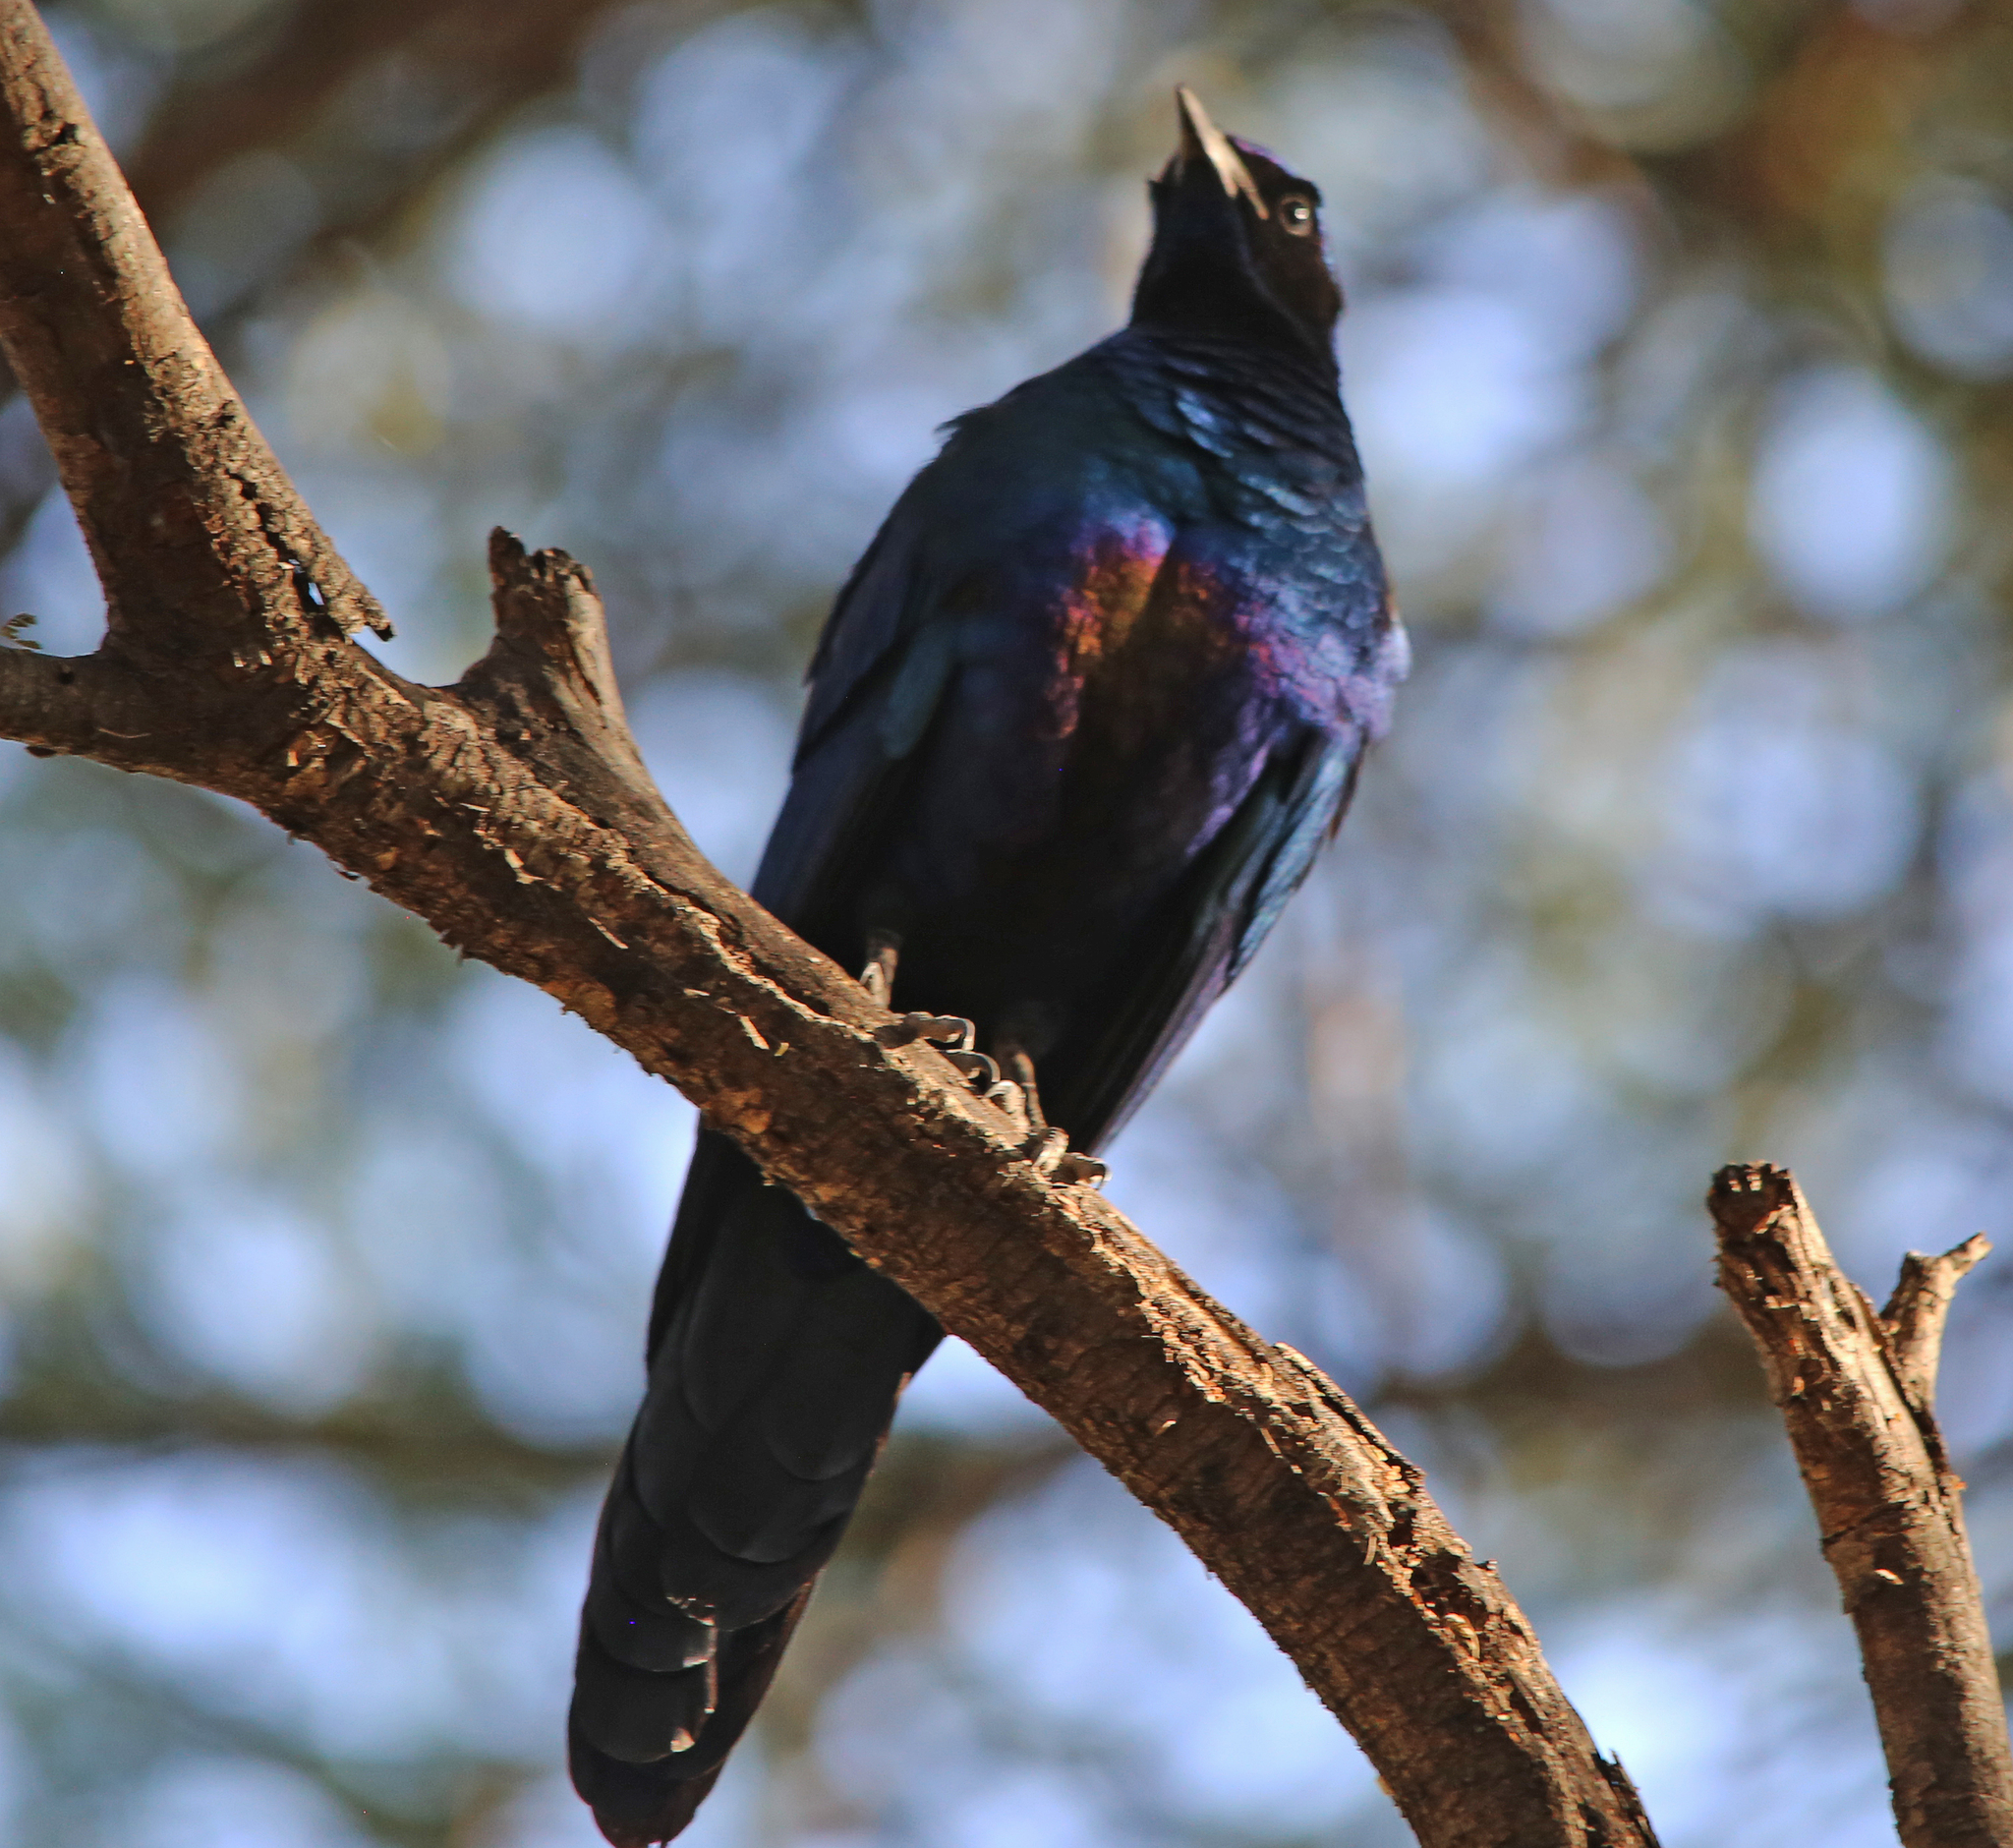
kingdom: Animalia
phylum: Chordata
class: Aves
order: Passeriformes
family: Sturnidae
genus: Lamprotornis
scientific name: Lamprotornis australis
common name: Burchell's starling
